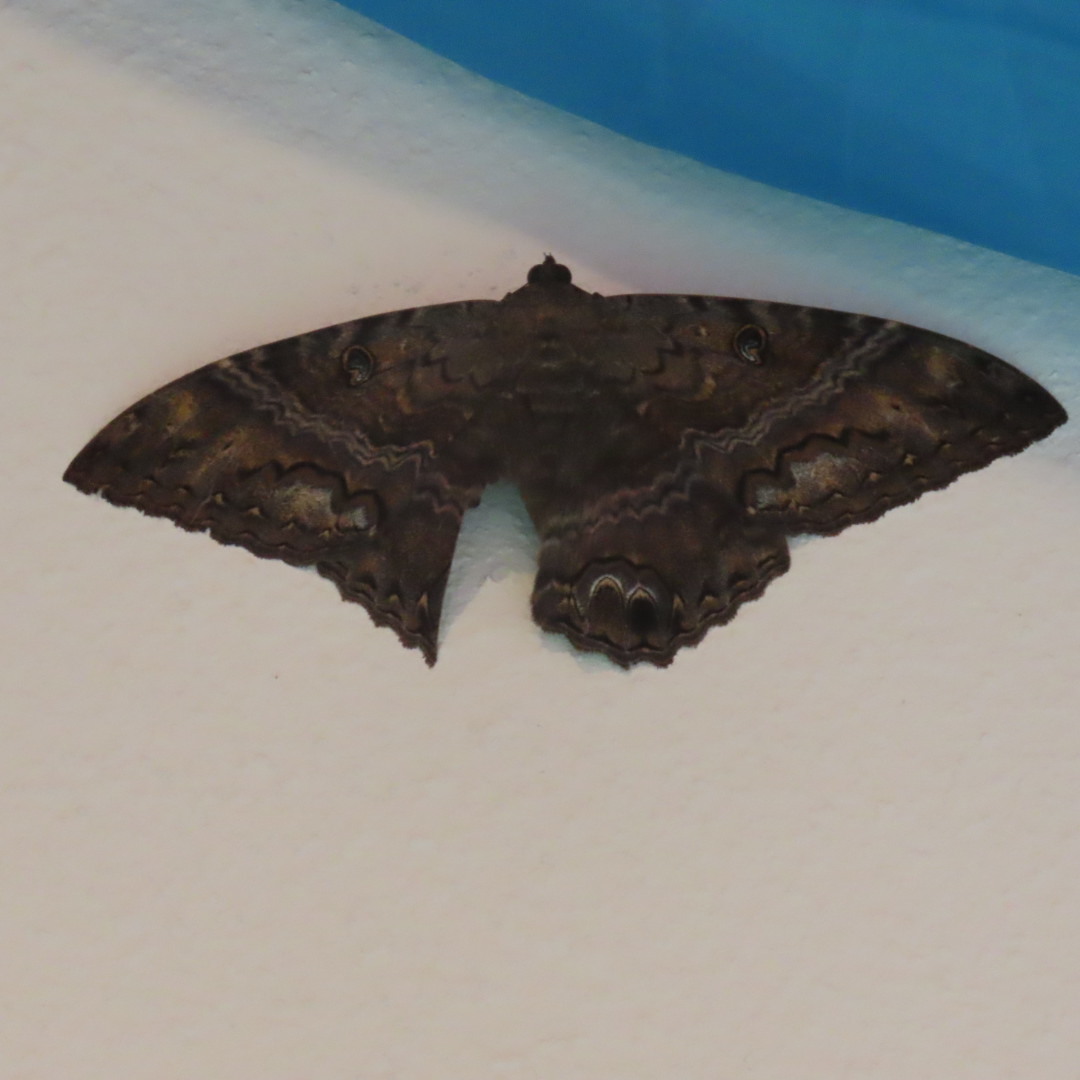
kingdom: Animalia
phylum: Arthropoda
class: Insecta
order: Lepidoptera
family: Erebidae
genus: Ascalapha
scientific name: Ascalapha odorata
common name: Black witch
